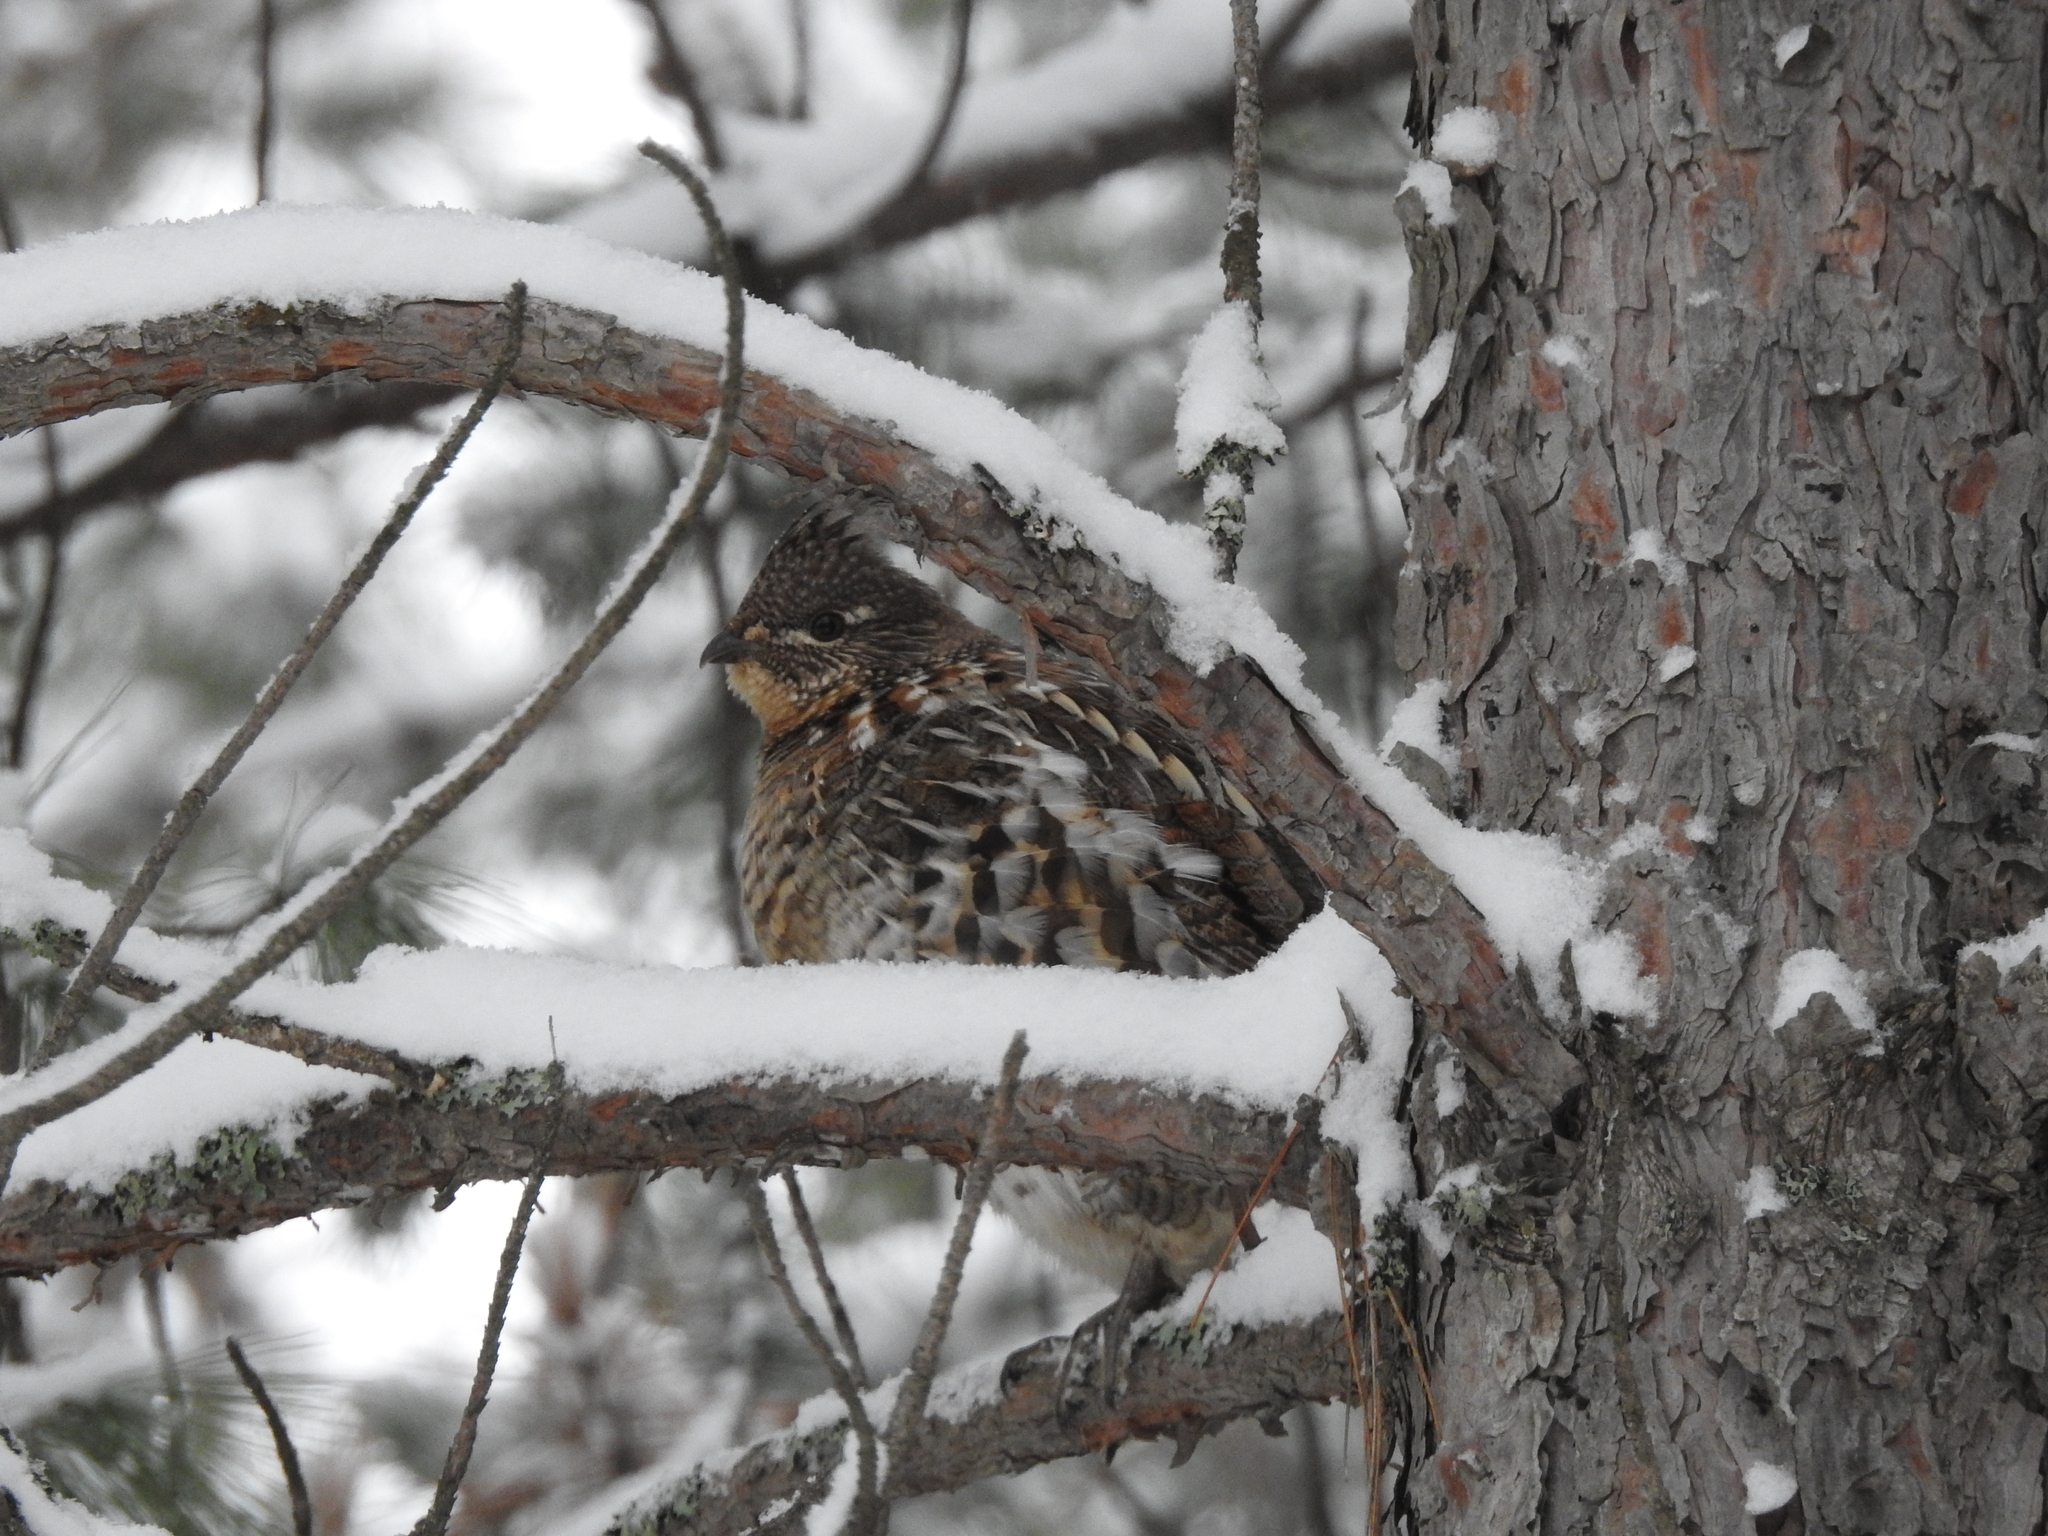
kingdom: Animalia
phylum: Chordata
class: Aves
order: Galliformes
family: Phasianidae
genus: Bonasa
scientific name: Bonasa umbellus
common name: Ruffed grouse
